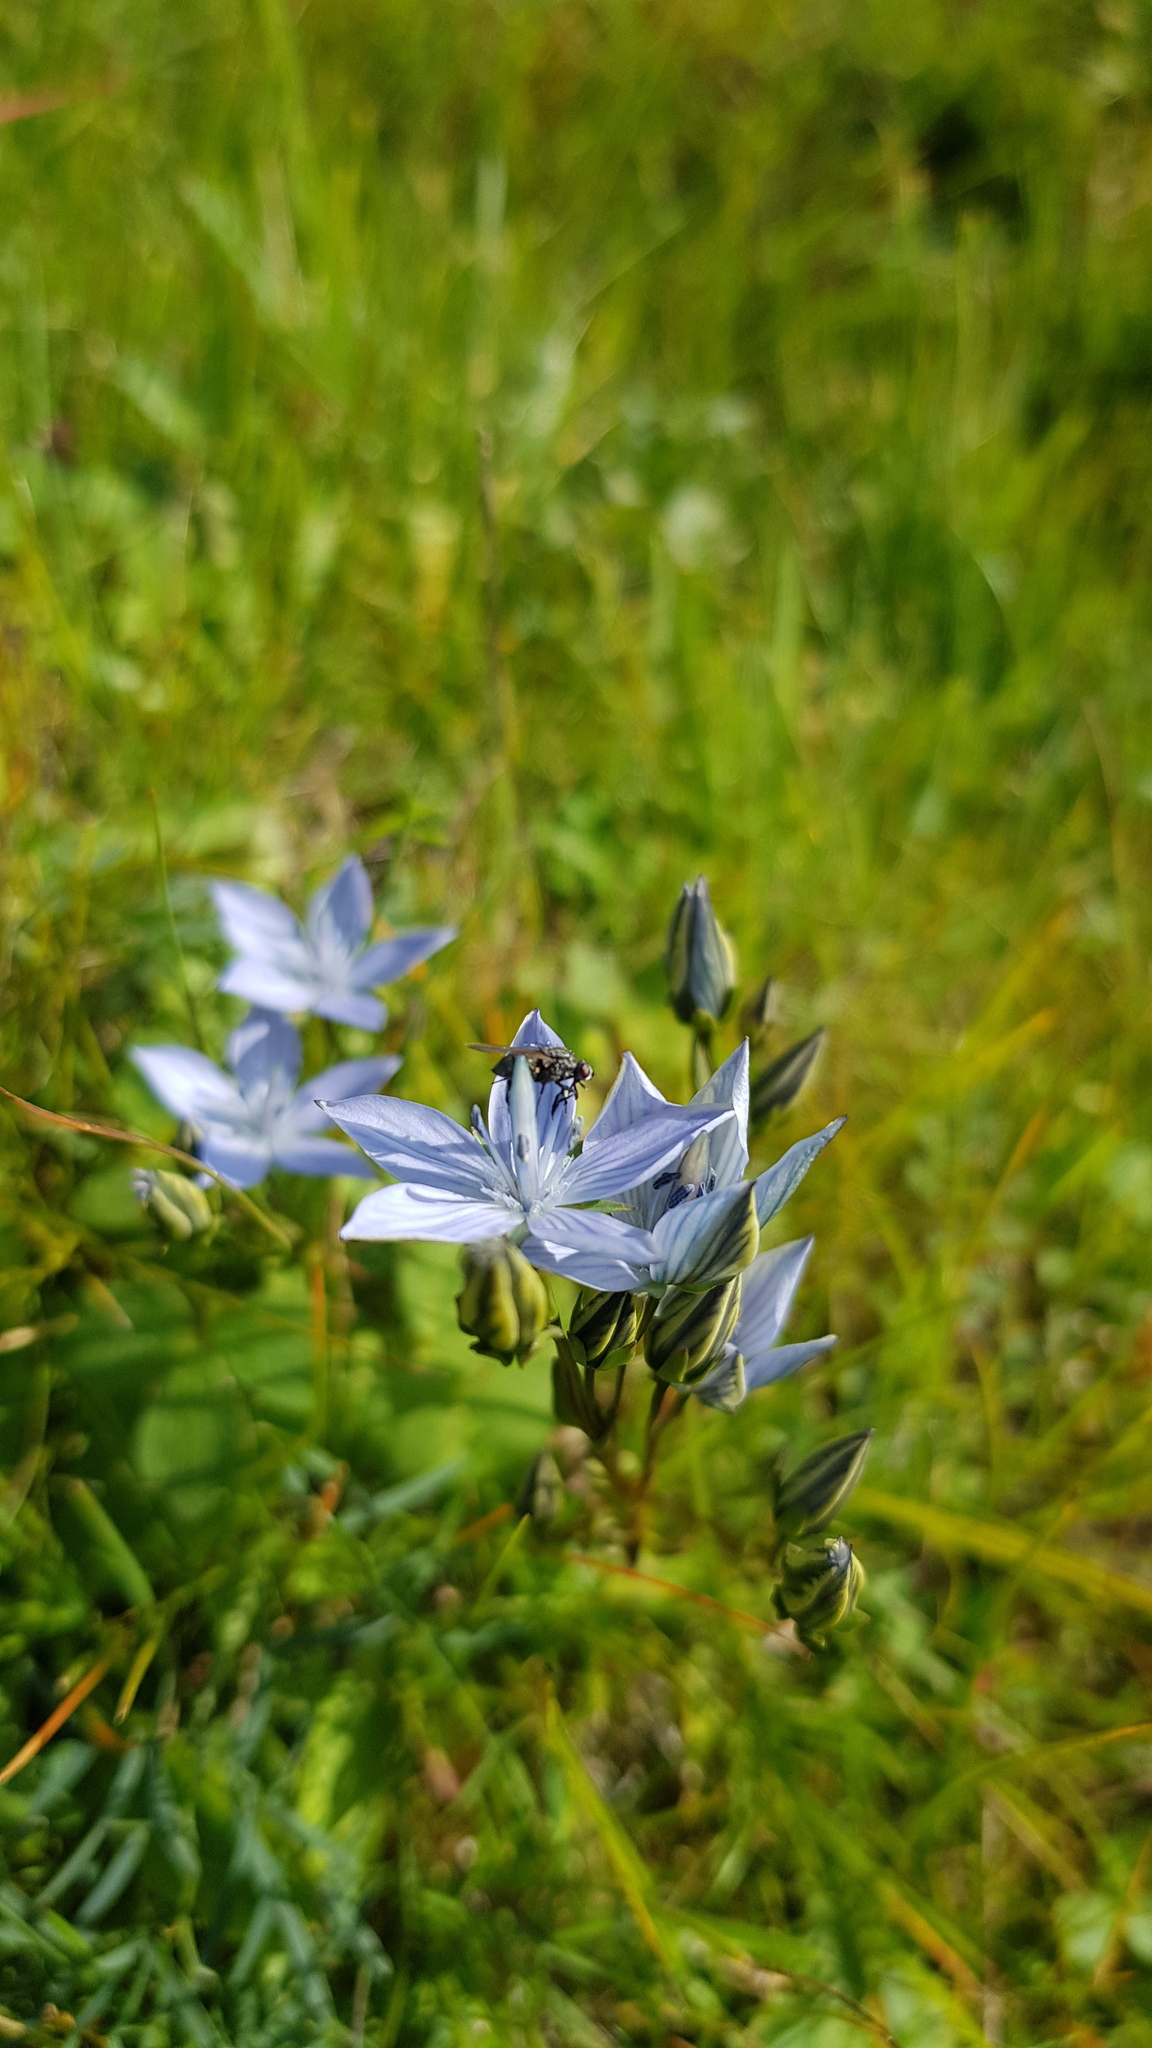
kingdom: Plantae
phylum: Tracheophyta
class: Magnoliopsida
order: Gentianales
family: Gentianaceae
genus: Lomatogonium
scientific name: Lomatogonium carinthiacum
